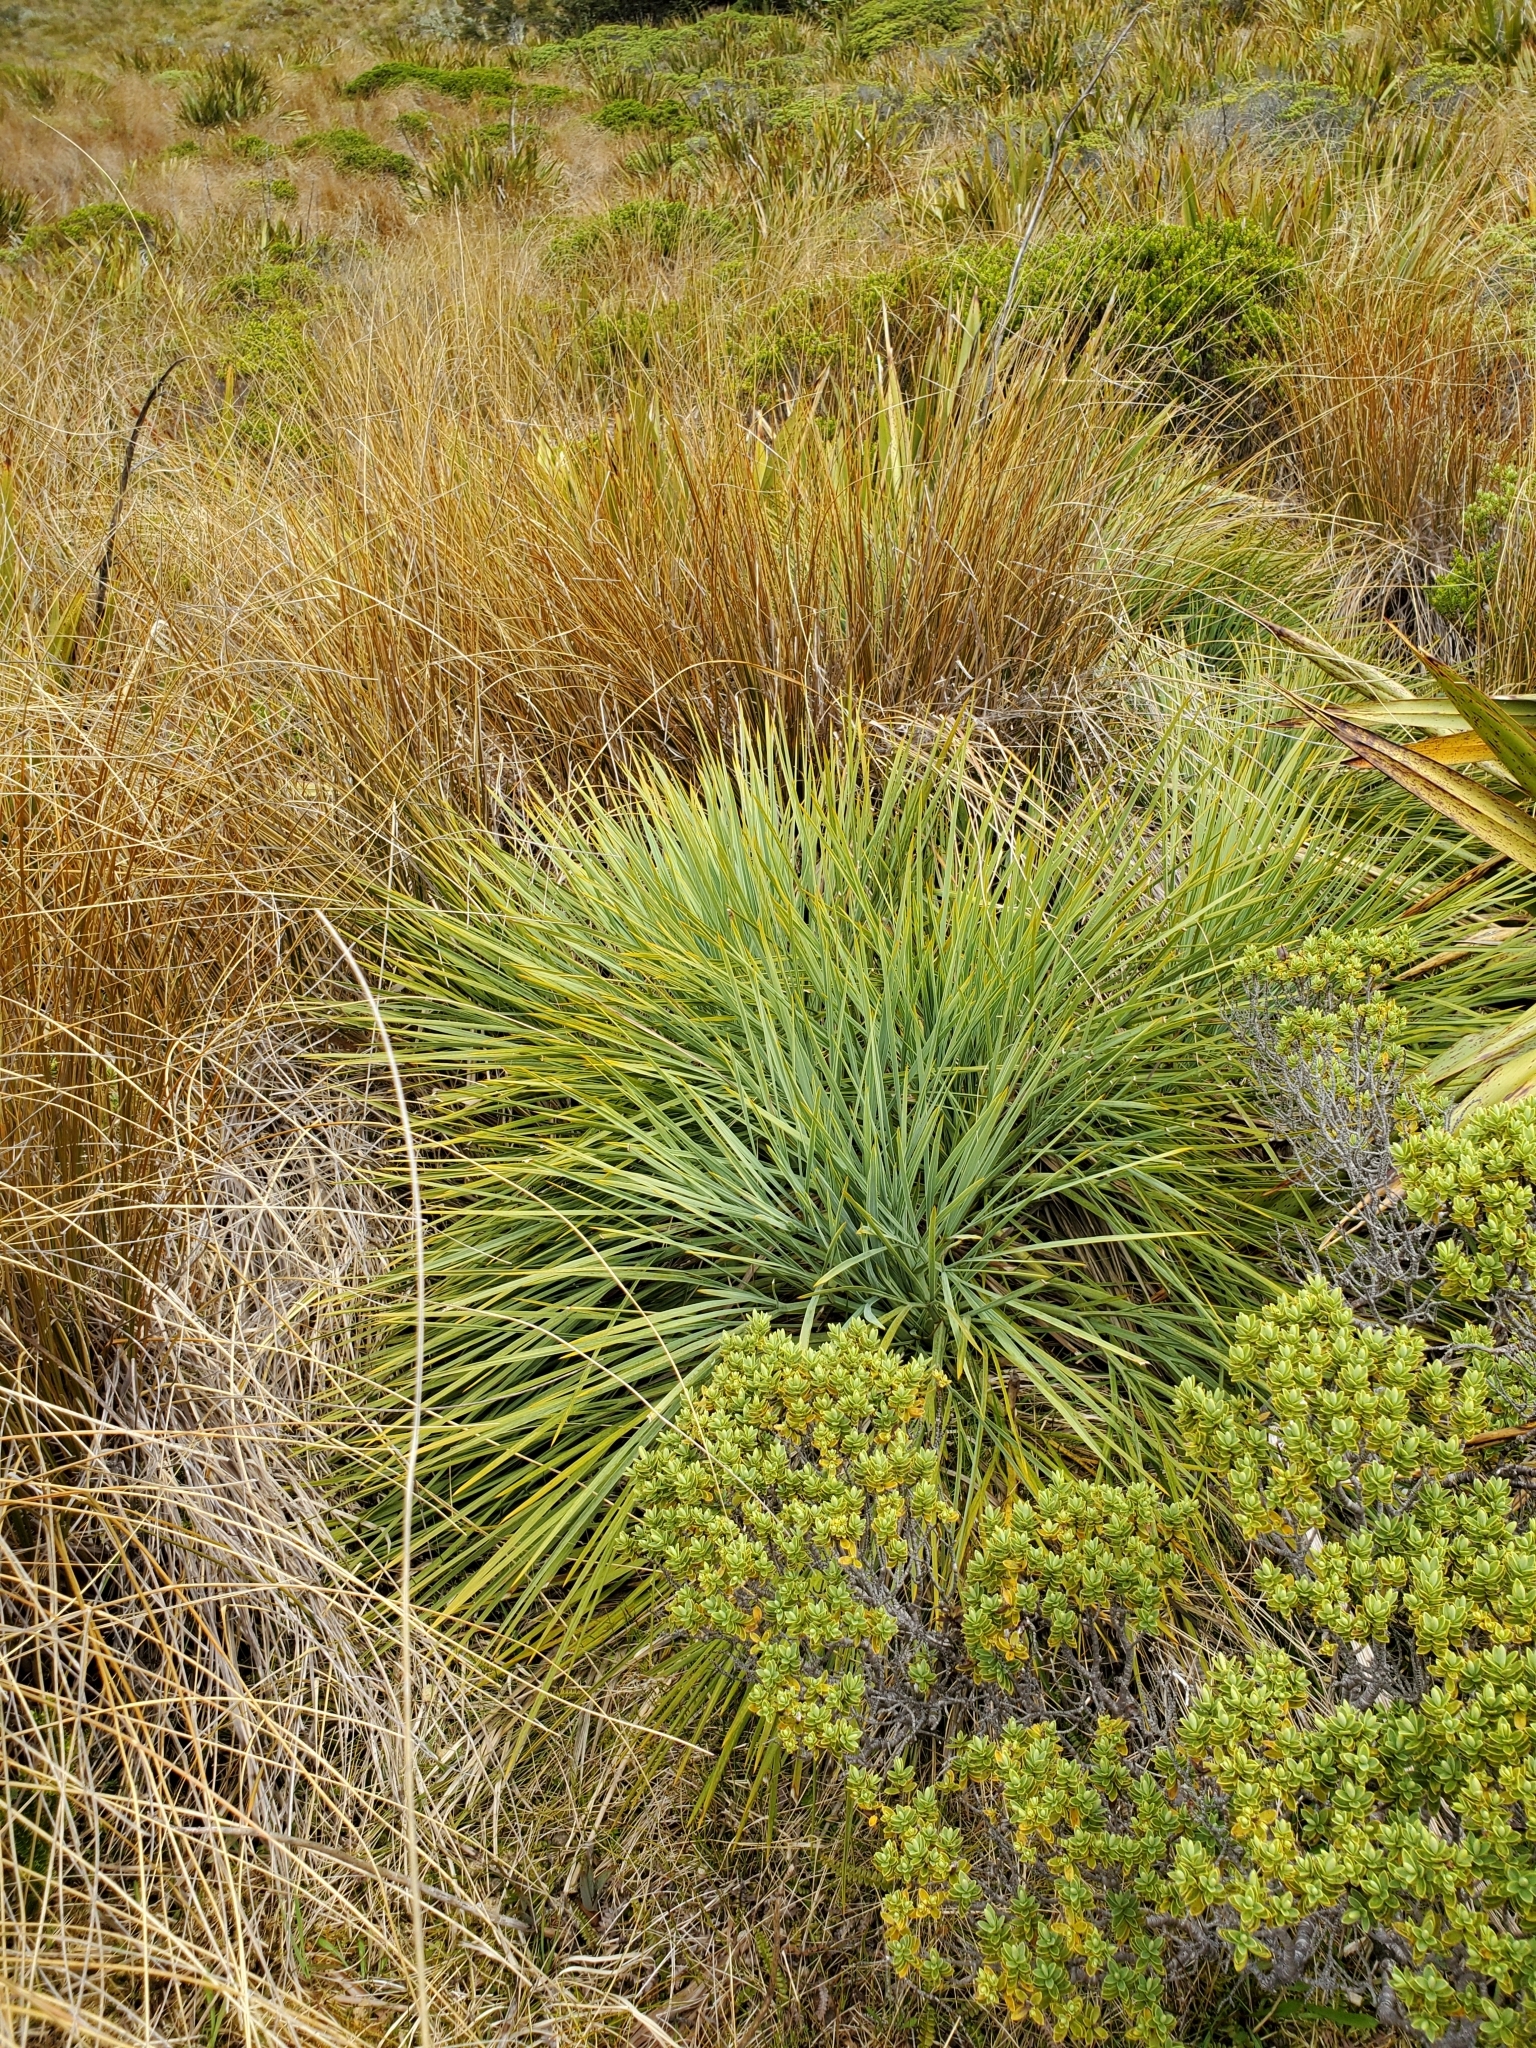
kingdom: Plantae
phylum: Tracheophyta
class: Magnoliopsida
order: Apiales
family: Apiaceae
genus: Aciphylla
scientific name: Aciphylla glaucescens
